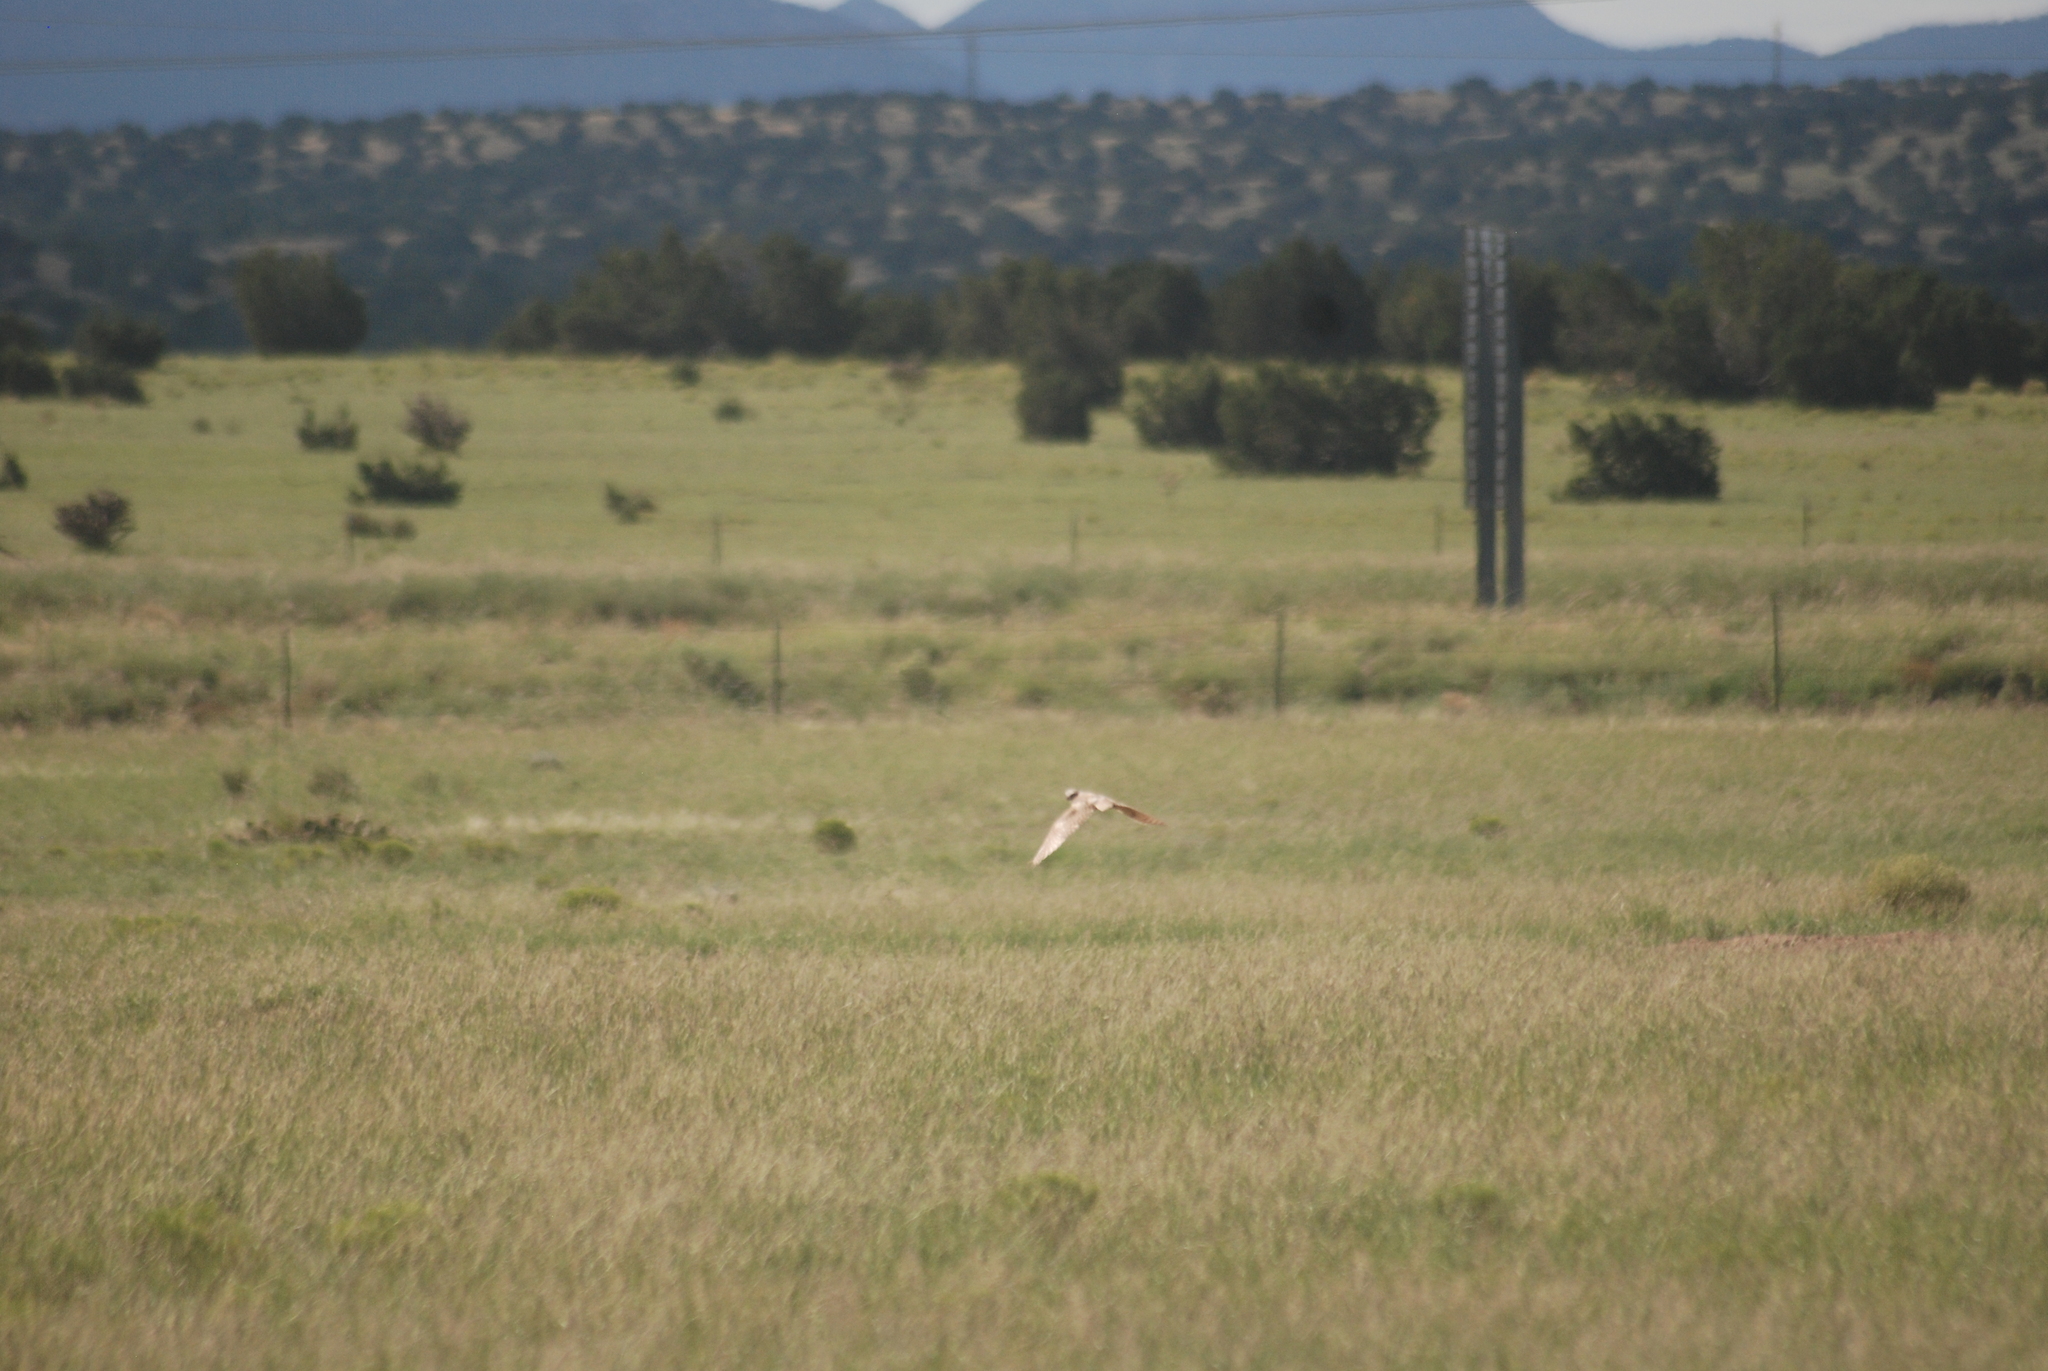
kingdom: Animalia
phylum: Chordata
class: Aves
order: Strigiformes
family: Strigidae
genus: Athene
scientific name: Athene cunicularia
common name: Burrowing owl
